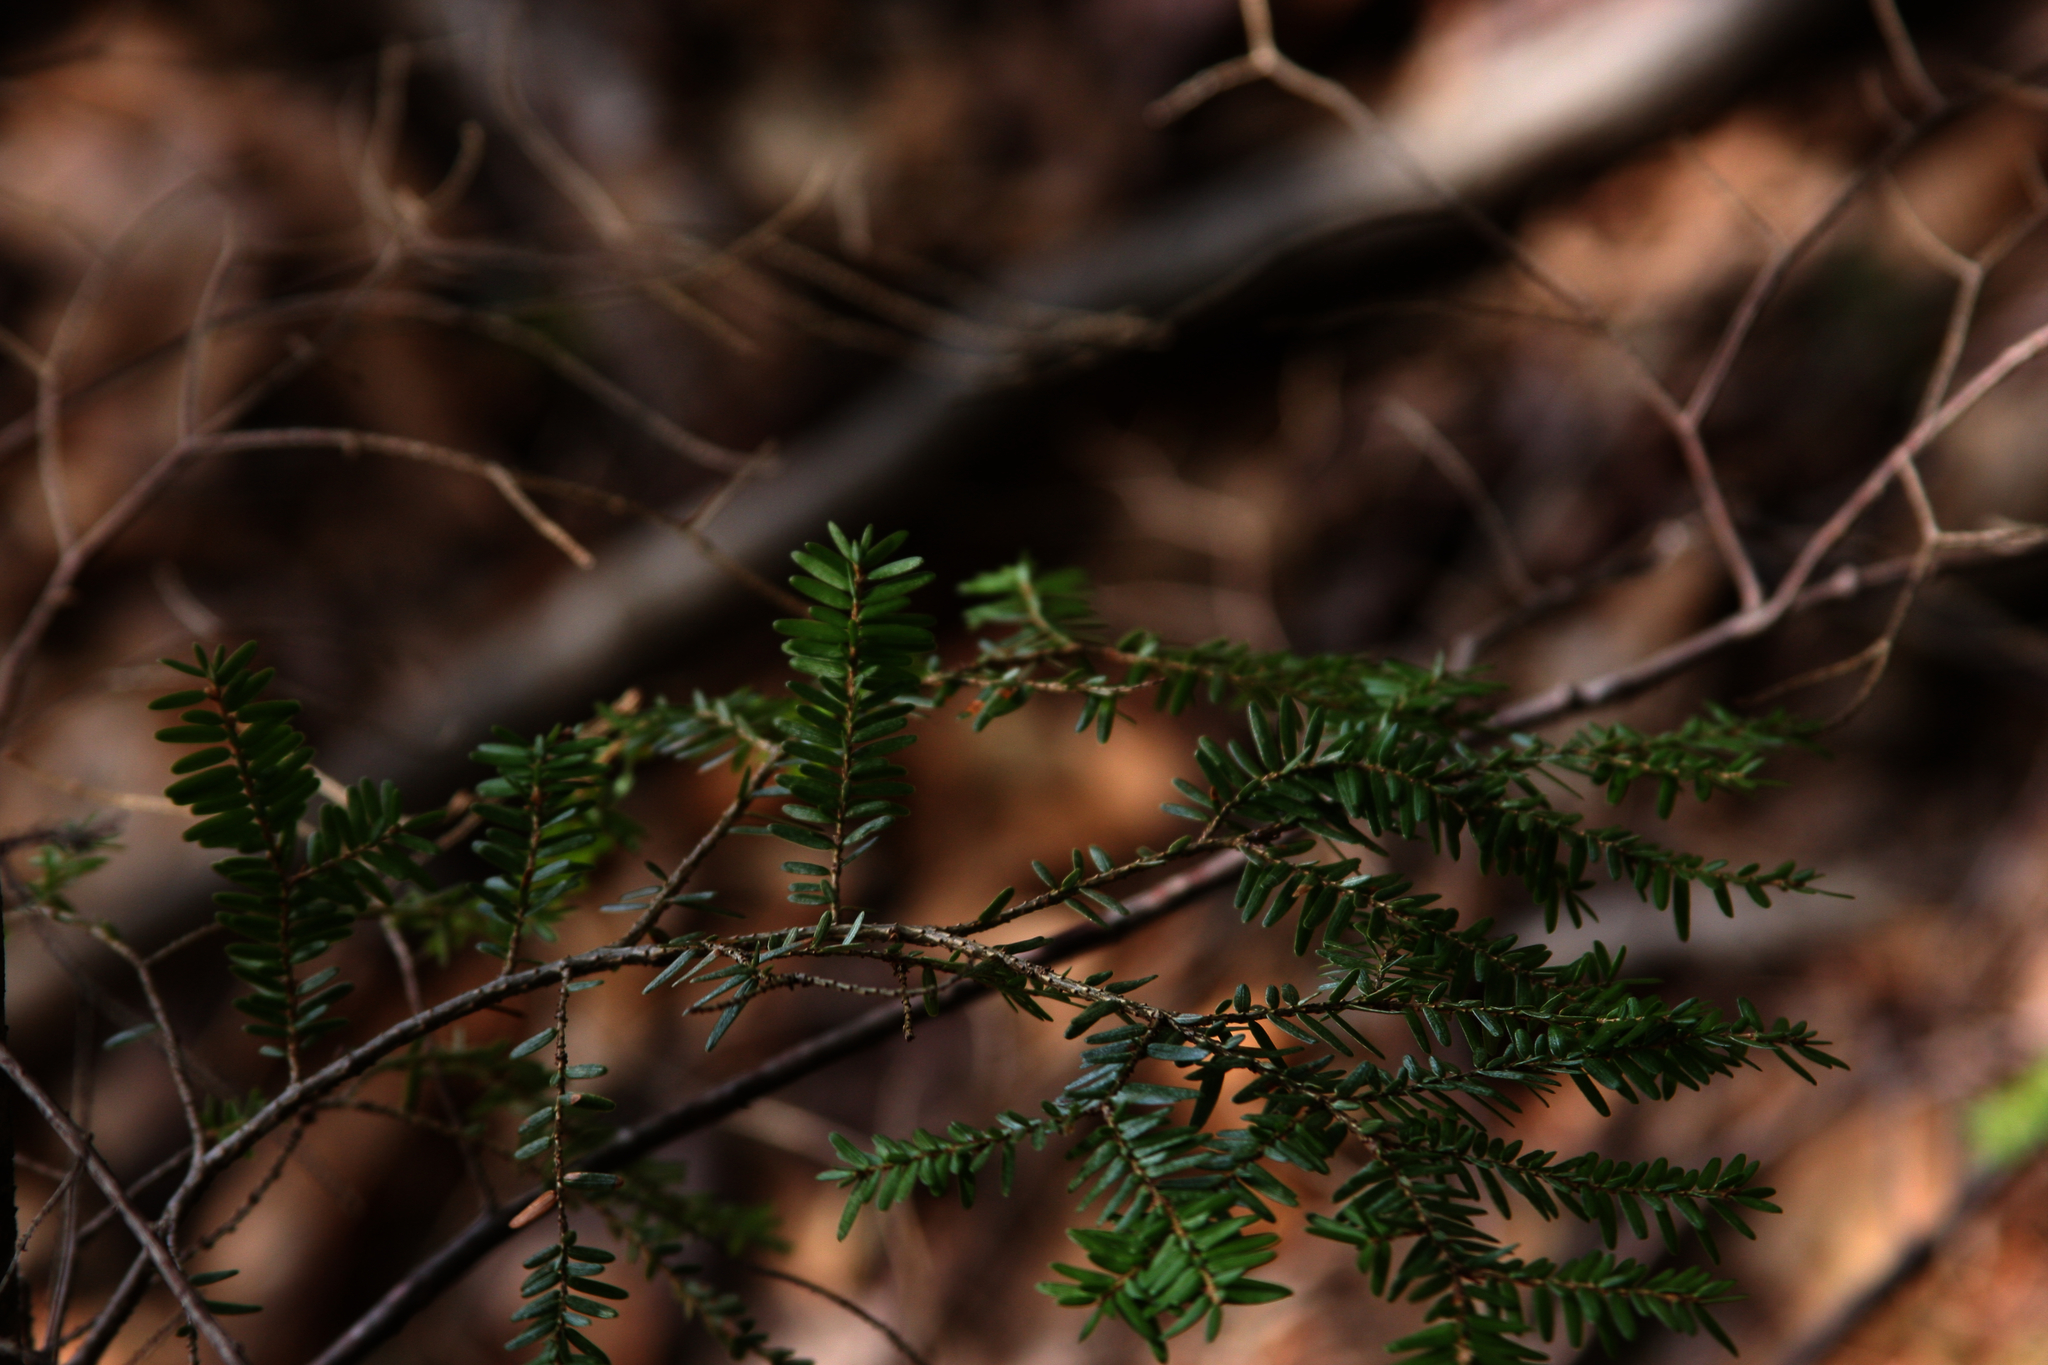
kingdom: Plantae
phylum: Tracheophyta
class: Pinopsida
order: Pinales
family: Pinaceae
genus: Tsuga
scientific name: Tsuga canadensis
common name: Eastern hemlock
